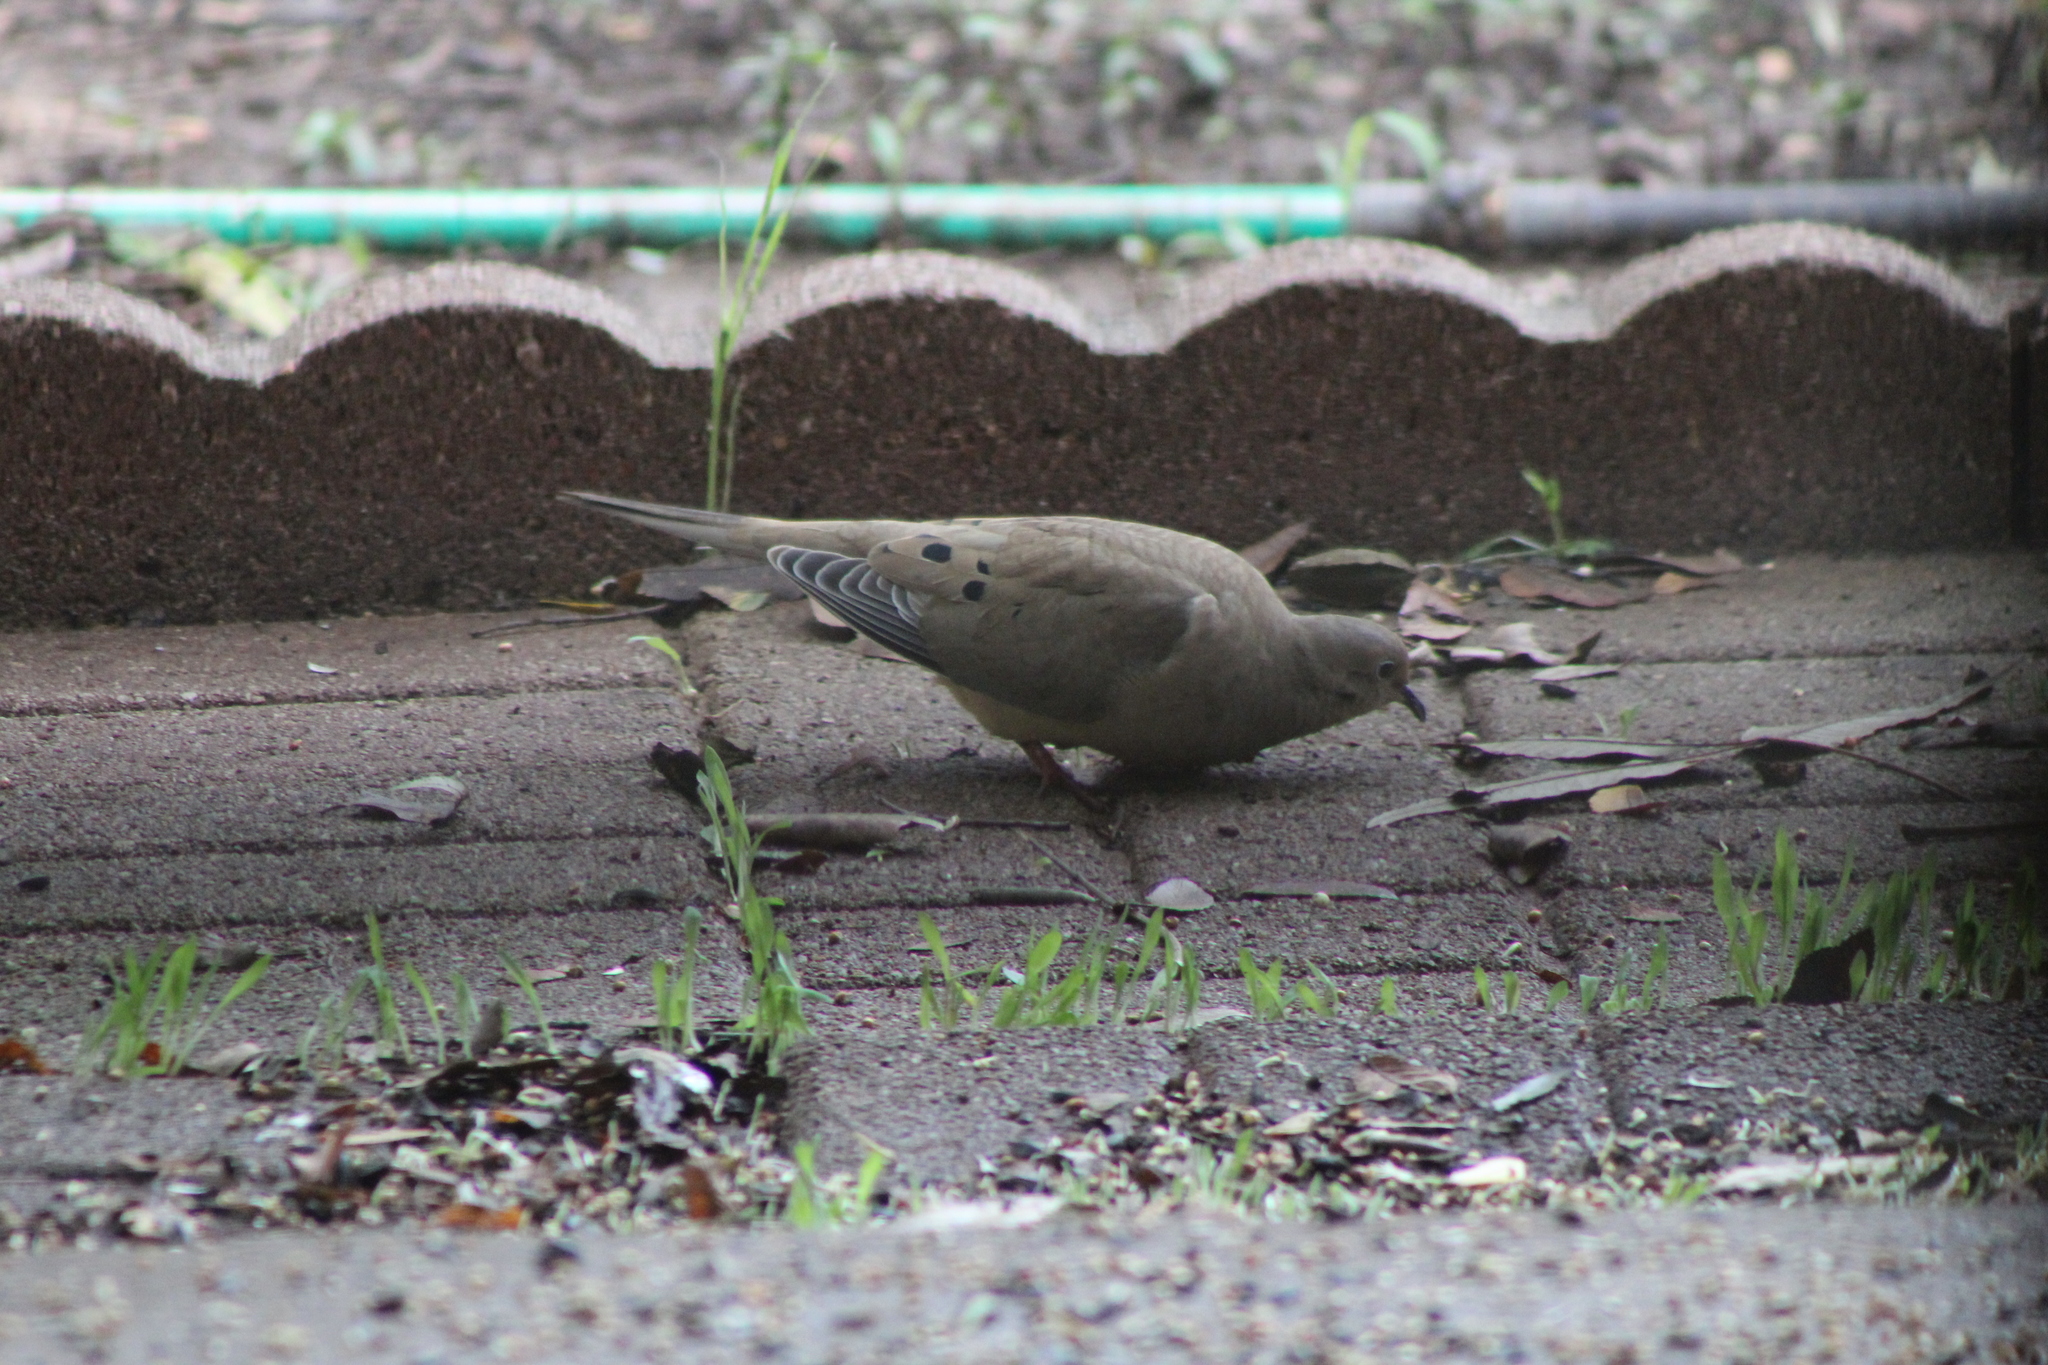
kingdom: Animalia
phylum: Chordata
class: Aves
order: Columbiformes
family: Columbidae
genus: Zenaida
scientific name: Zenaida macroura
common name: Mourning dove
